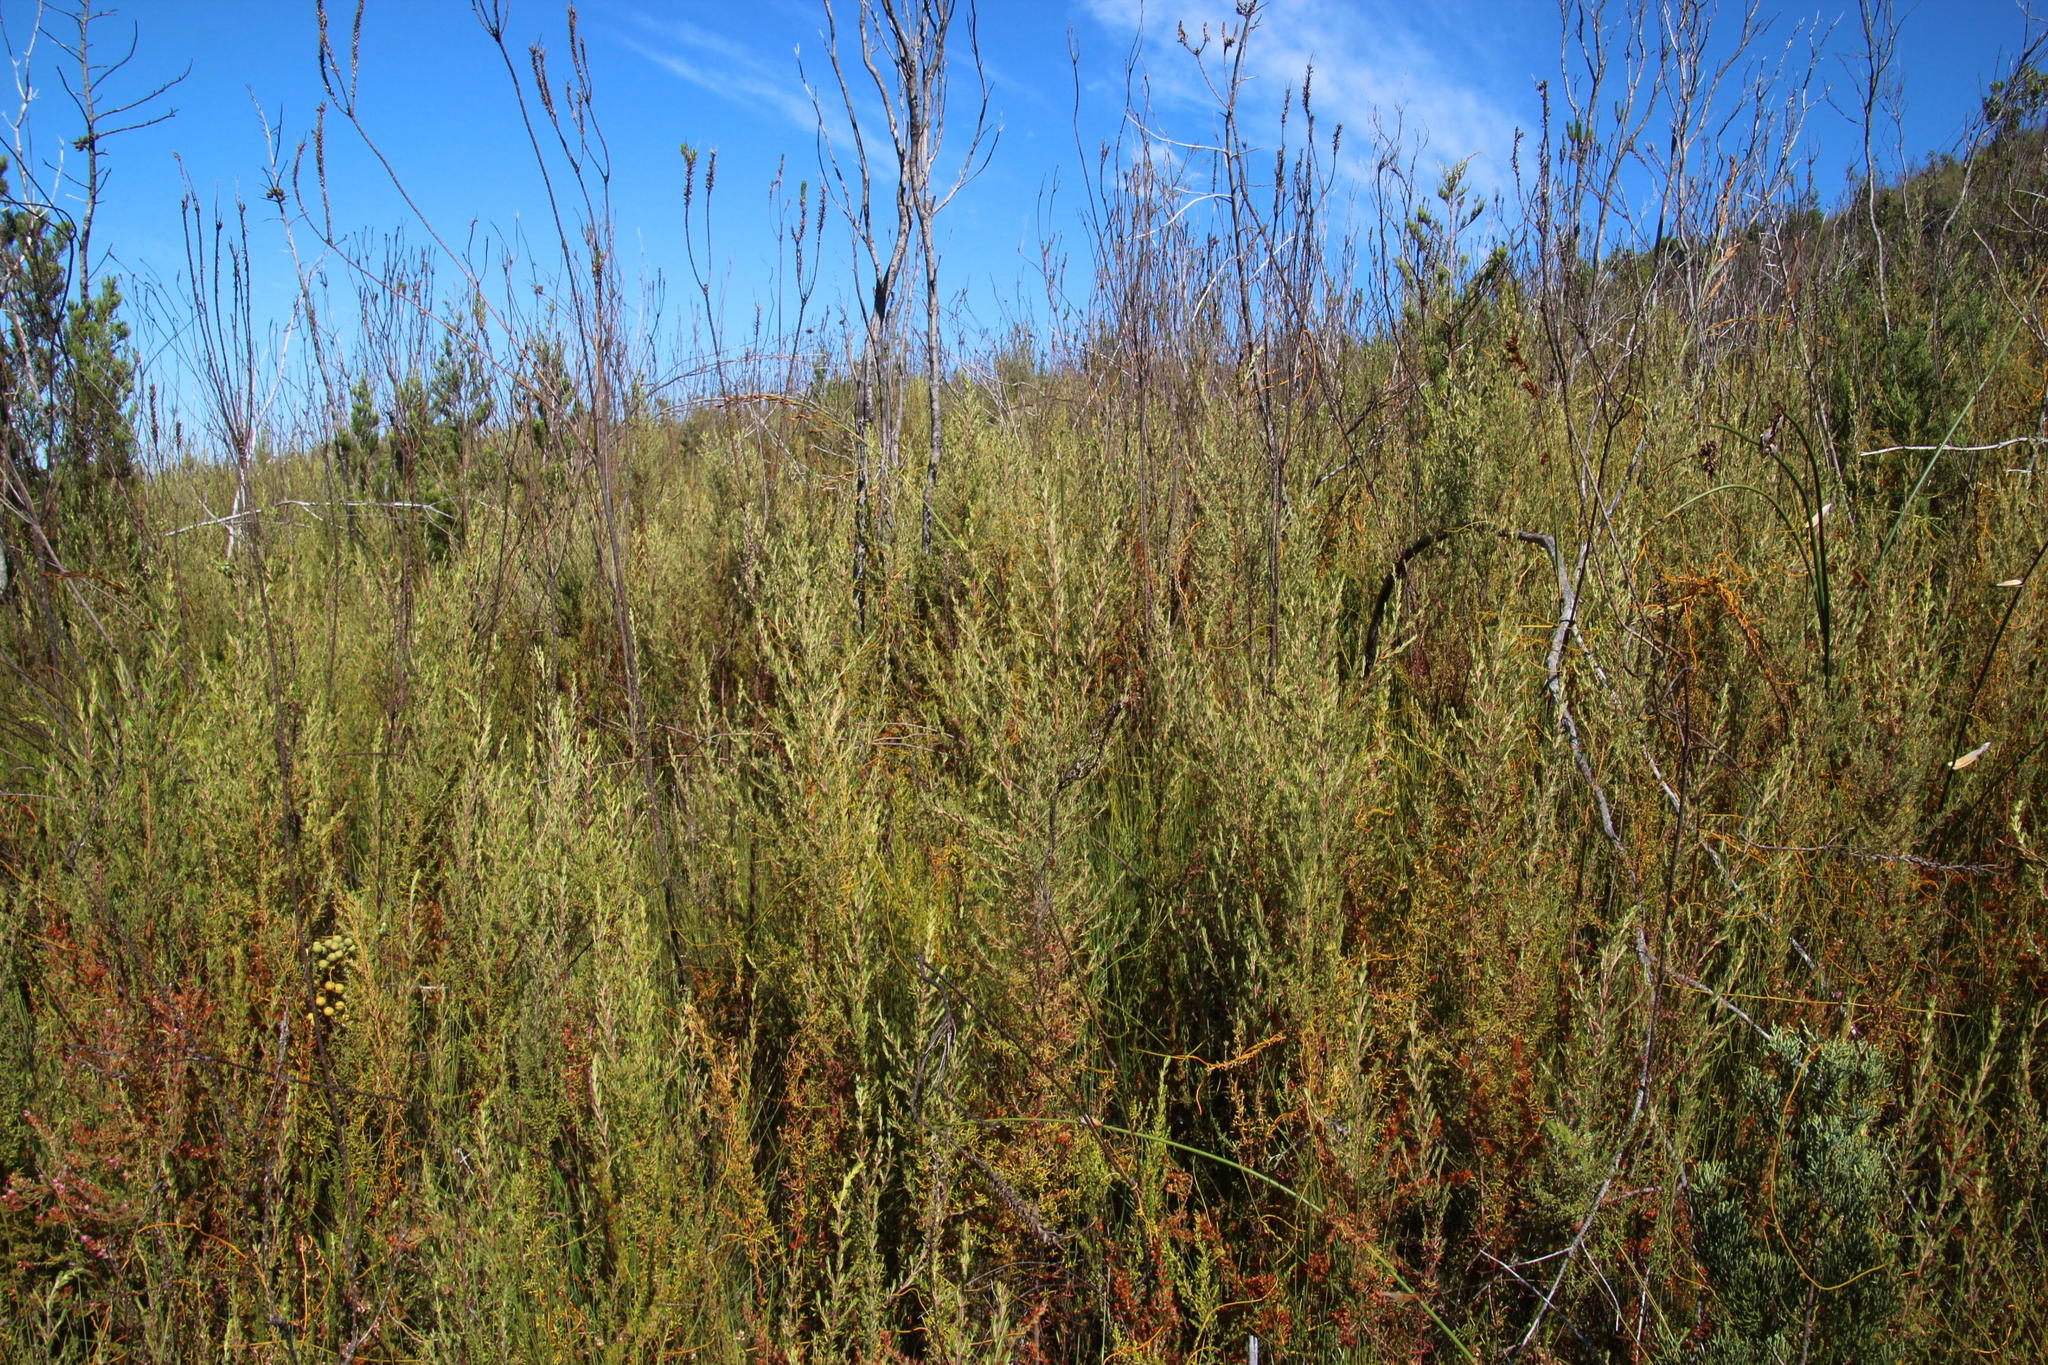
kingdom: Plantae
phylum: Tracheophyta
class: Magnoliopsida
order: Cornales
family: Grubbiaceae
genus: Grubbia
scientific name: Grubbia rosmarinifolia
